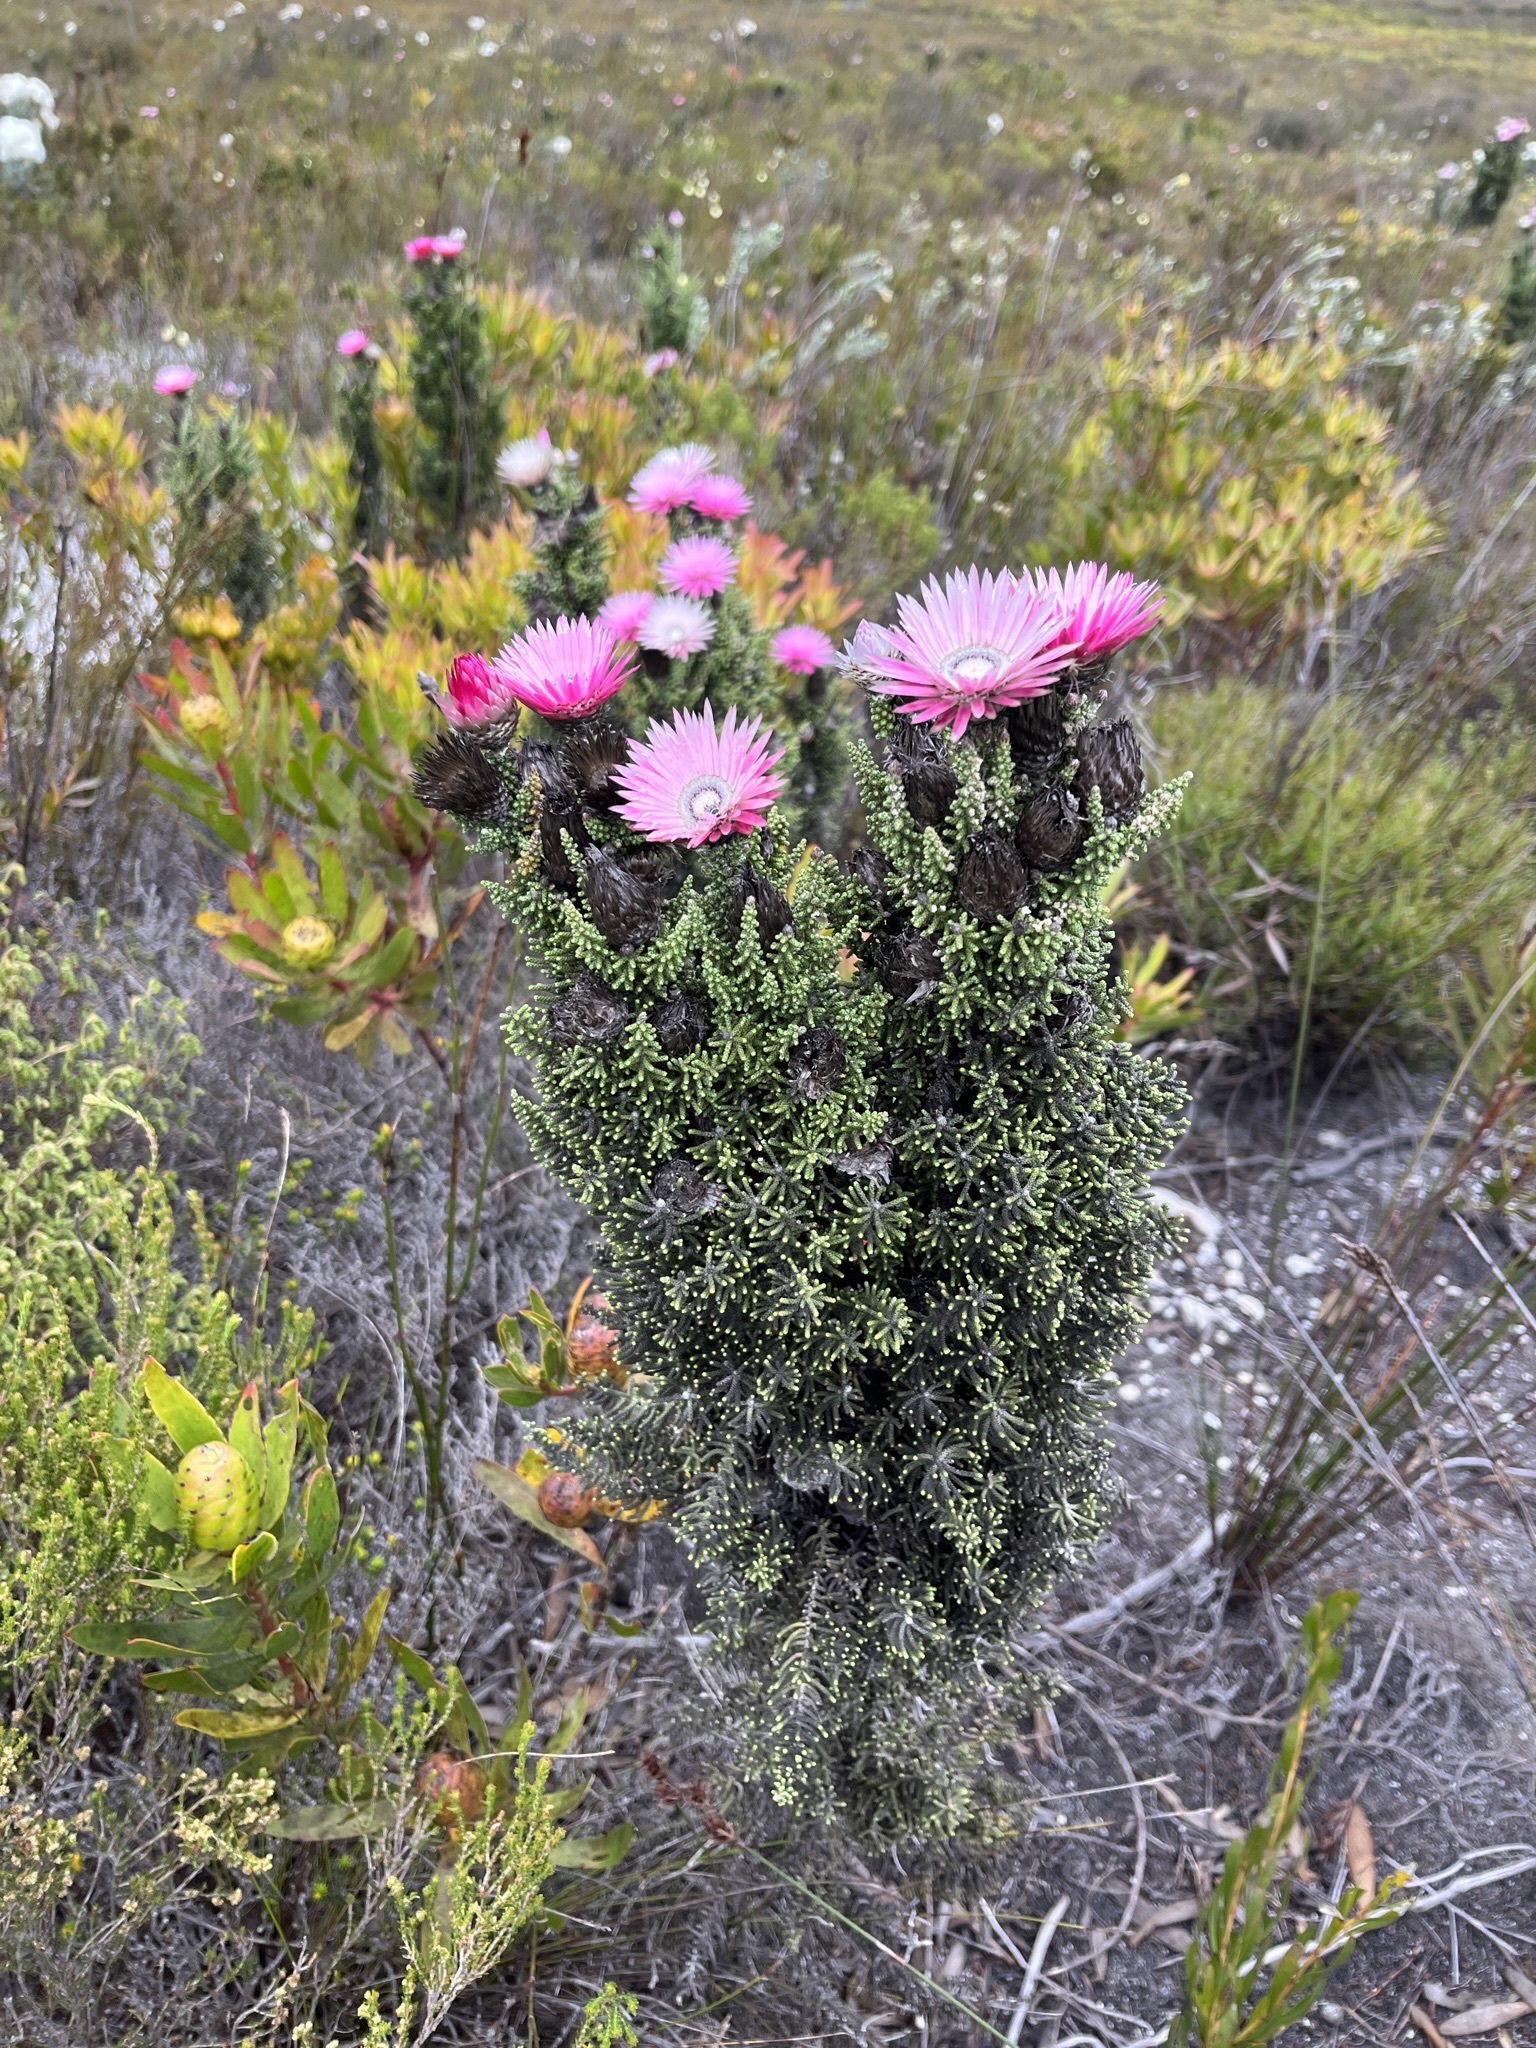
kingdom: Plantae
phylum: Tracheophyta
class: Magnoliopsida
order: Asterales
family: Asteraceae
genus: Phaenocoma
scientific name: Phaenocoma prolifera
